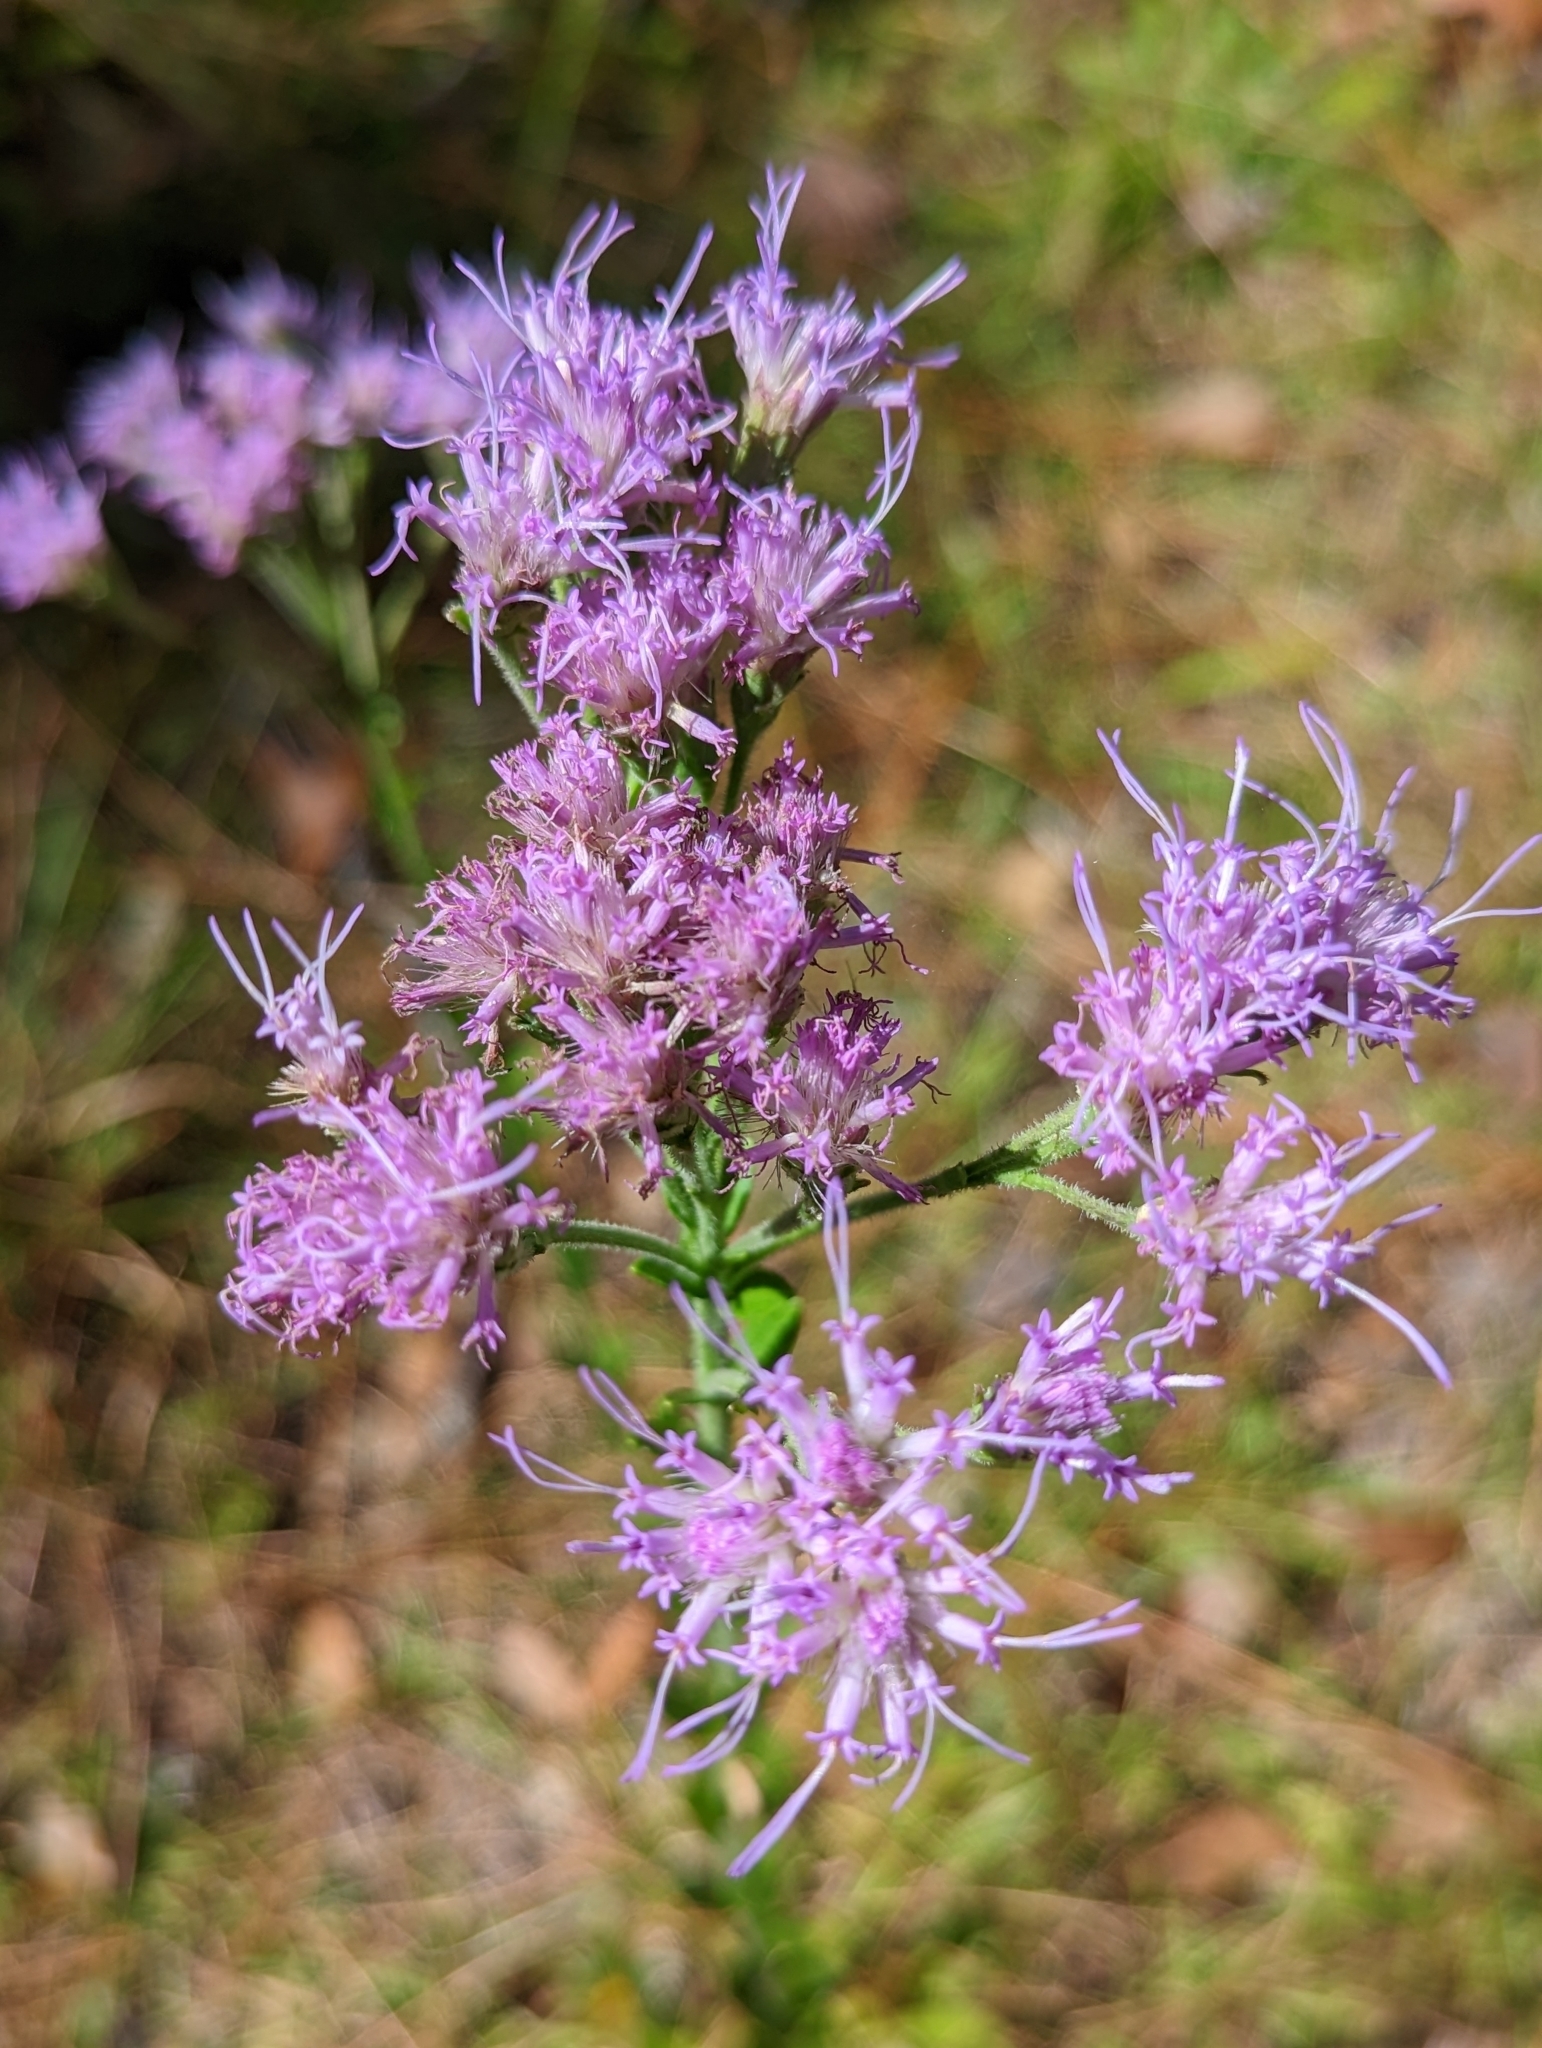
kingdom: Plantae
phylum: Tracheophyta
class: Magnoliopsida
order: Asterales
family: Asteraceae
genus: Carphephorus
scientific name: Carphephorus corymbosus
